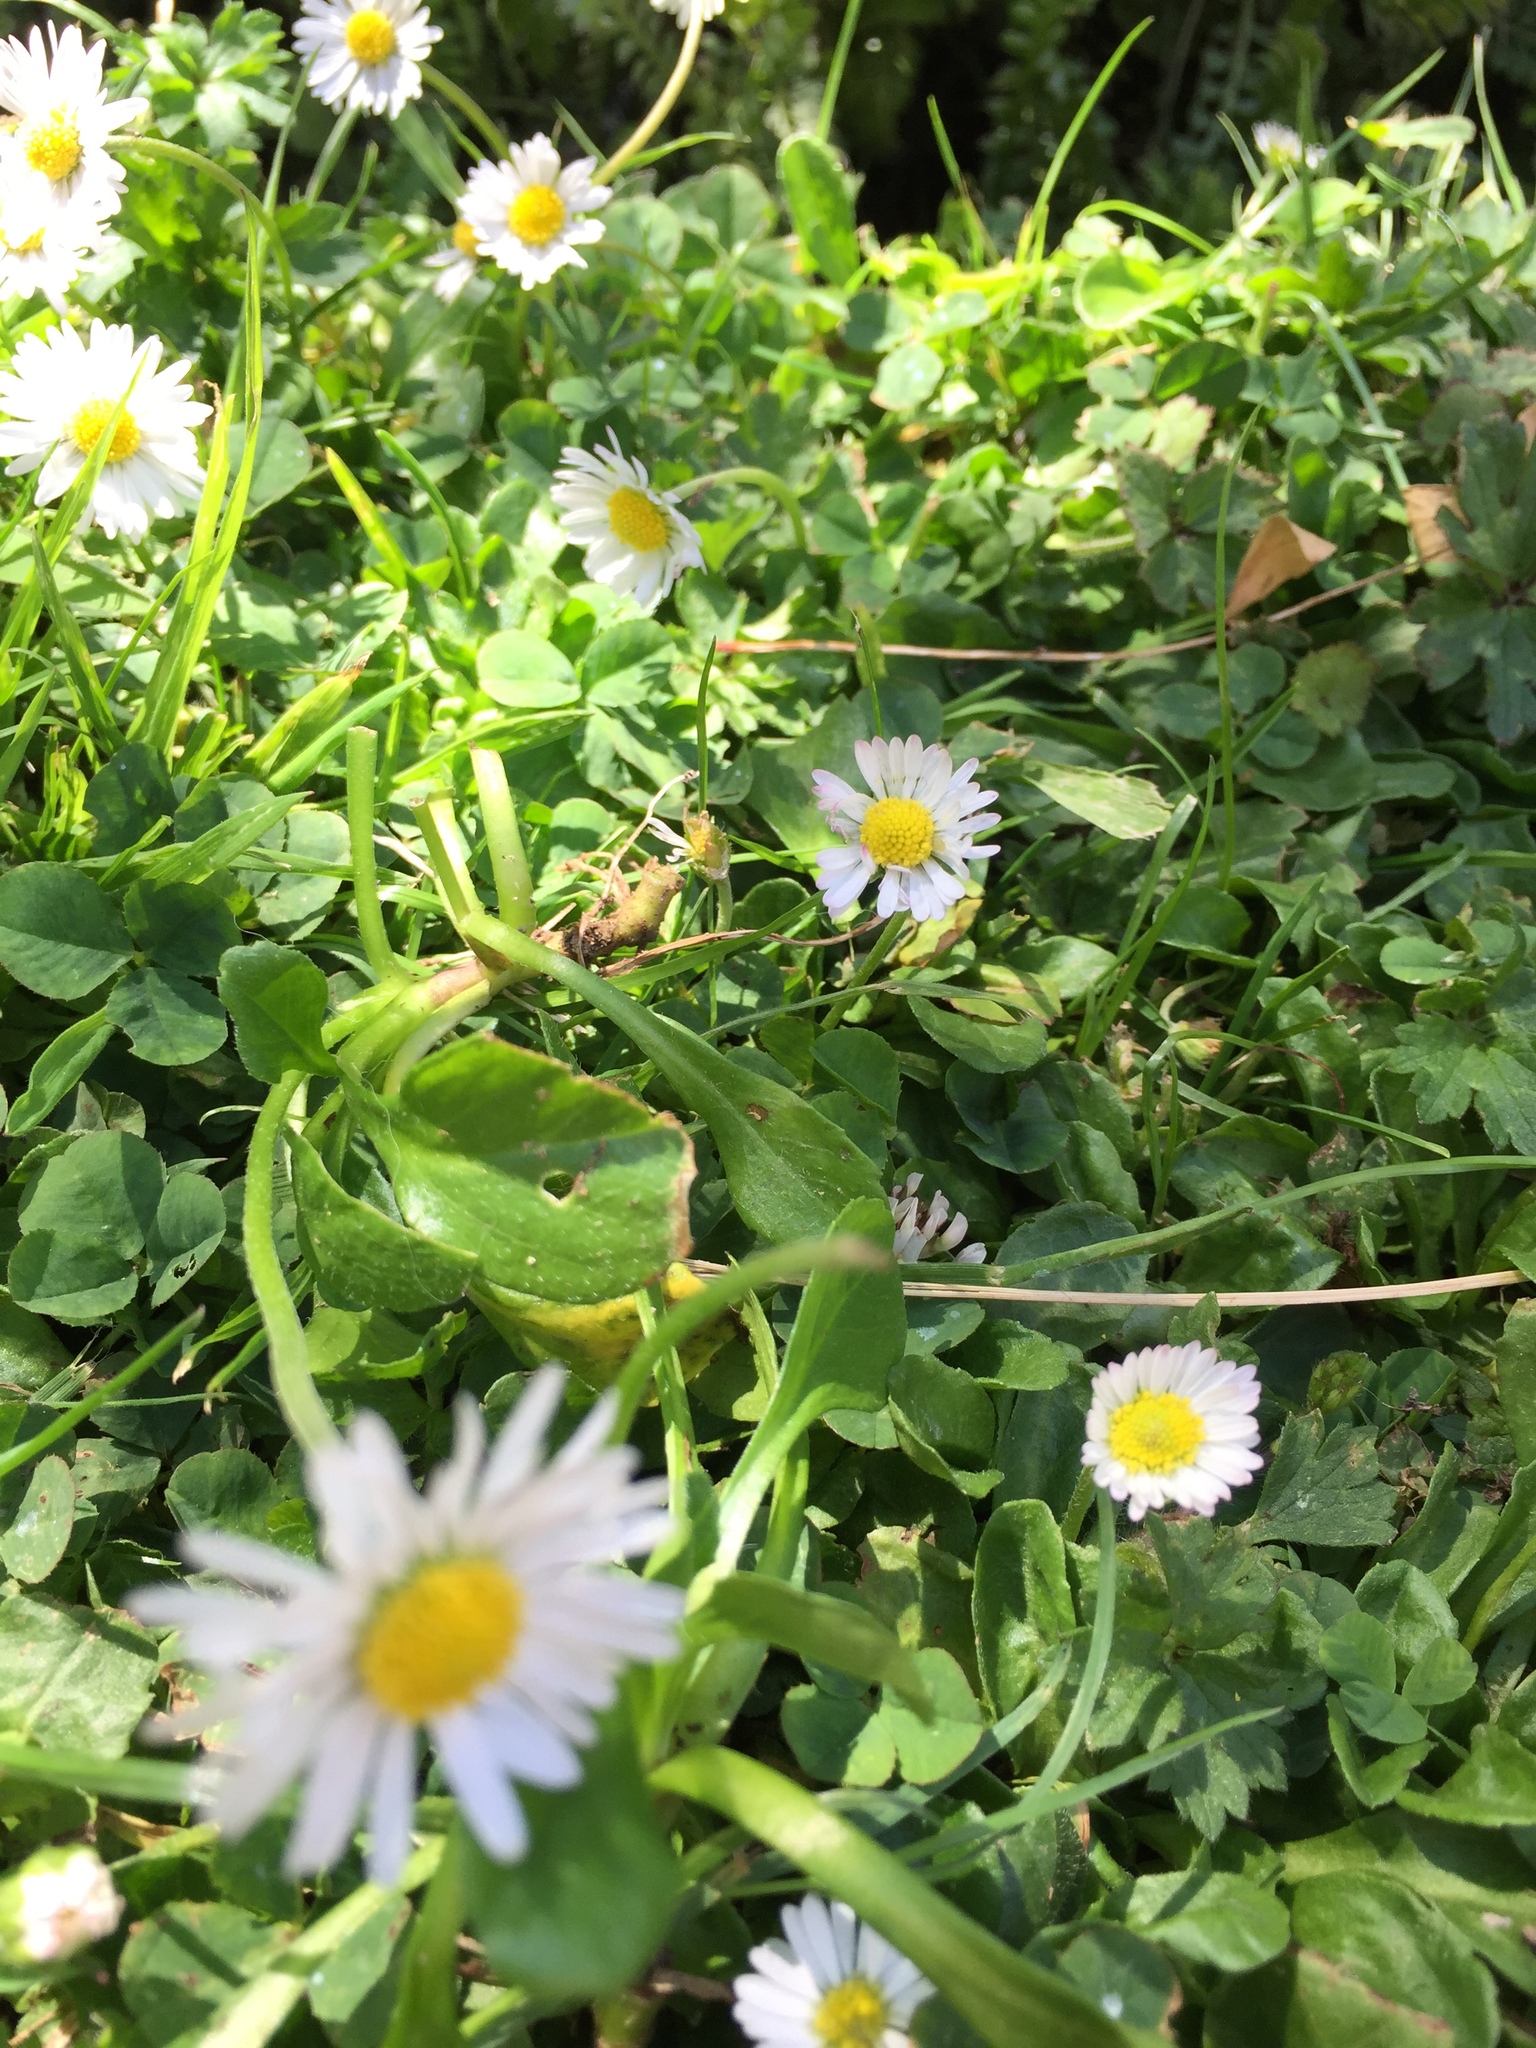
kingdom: Plantae
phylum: Tracheophyta
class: Magnoliopsida
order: Asterales
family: Asteraceae
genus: Bellis
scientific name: Bellis perennis
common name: Lawndaisy
